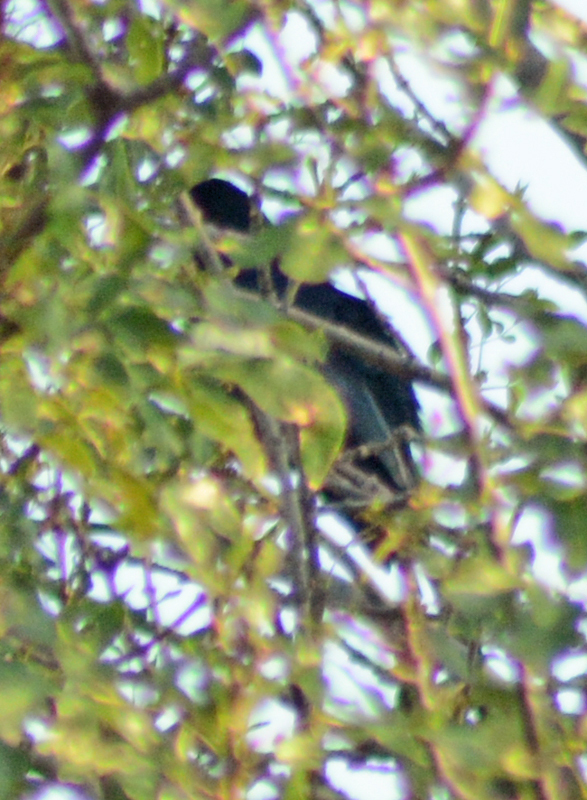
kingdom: Animalia
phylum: Chordata
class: Aves
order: Passeriformes
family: Icteridae
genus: Quiscalus
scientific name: Quiscalus mexicanus
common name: Great-tailed grackle
